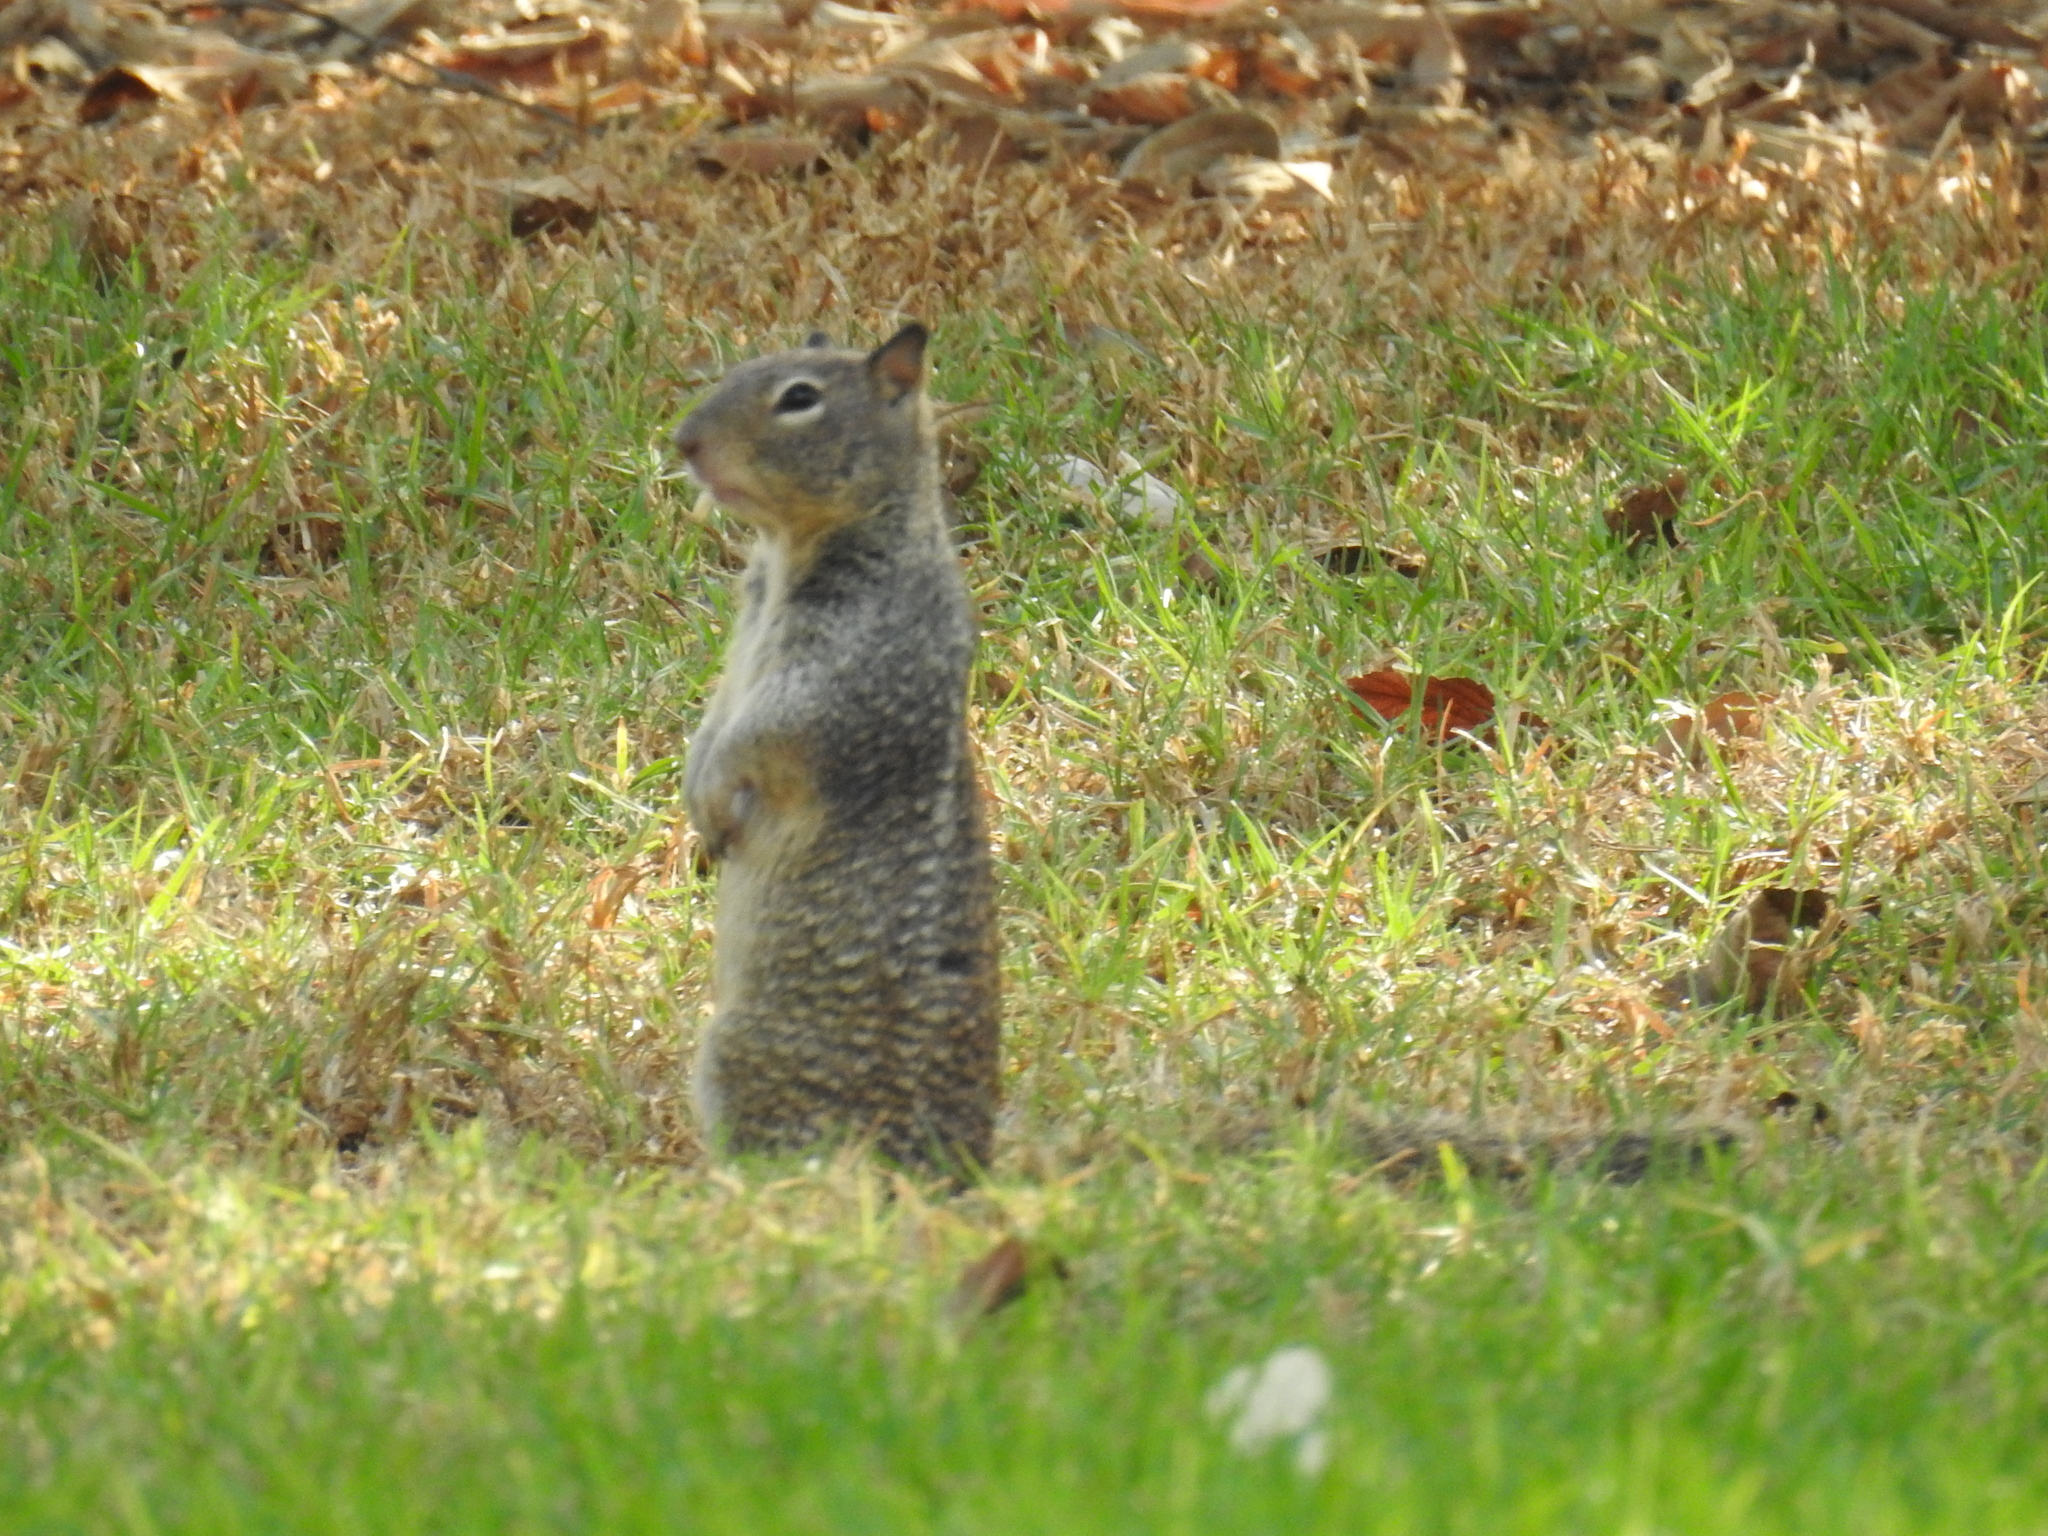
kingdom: Animalia
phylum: Chordata
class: Mammalia
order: Rodentia
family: Sciuridae
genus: Otospermophilus
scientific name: Otospermophilus beecheyi
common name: California ground squirrel
